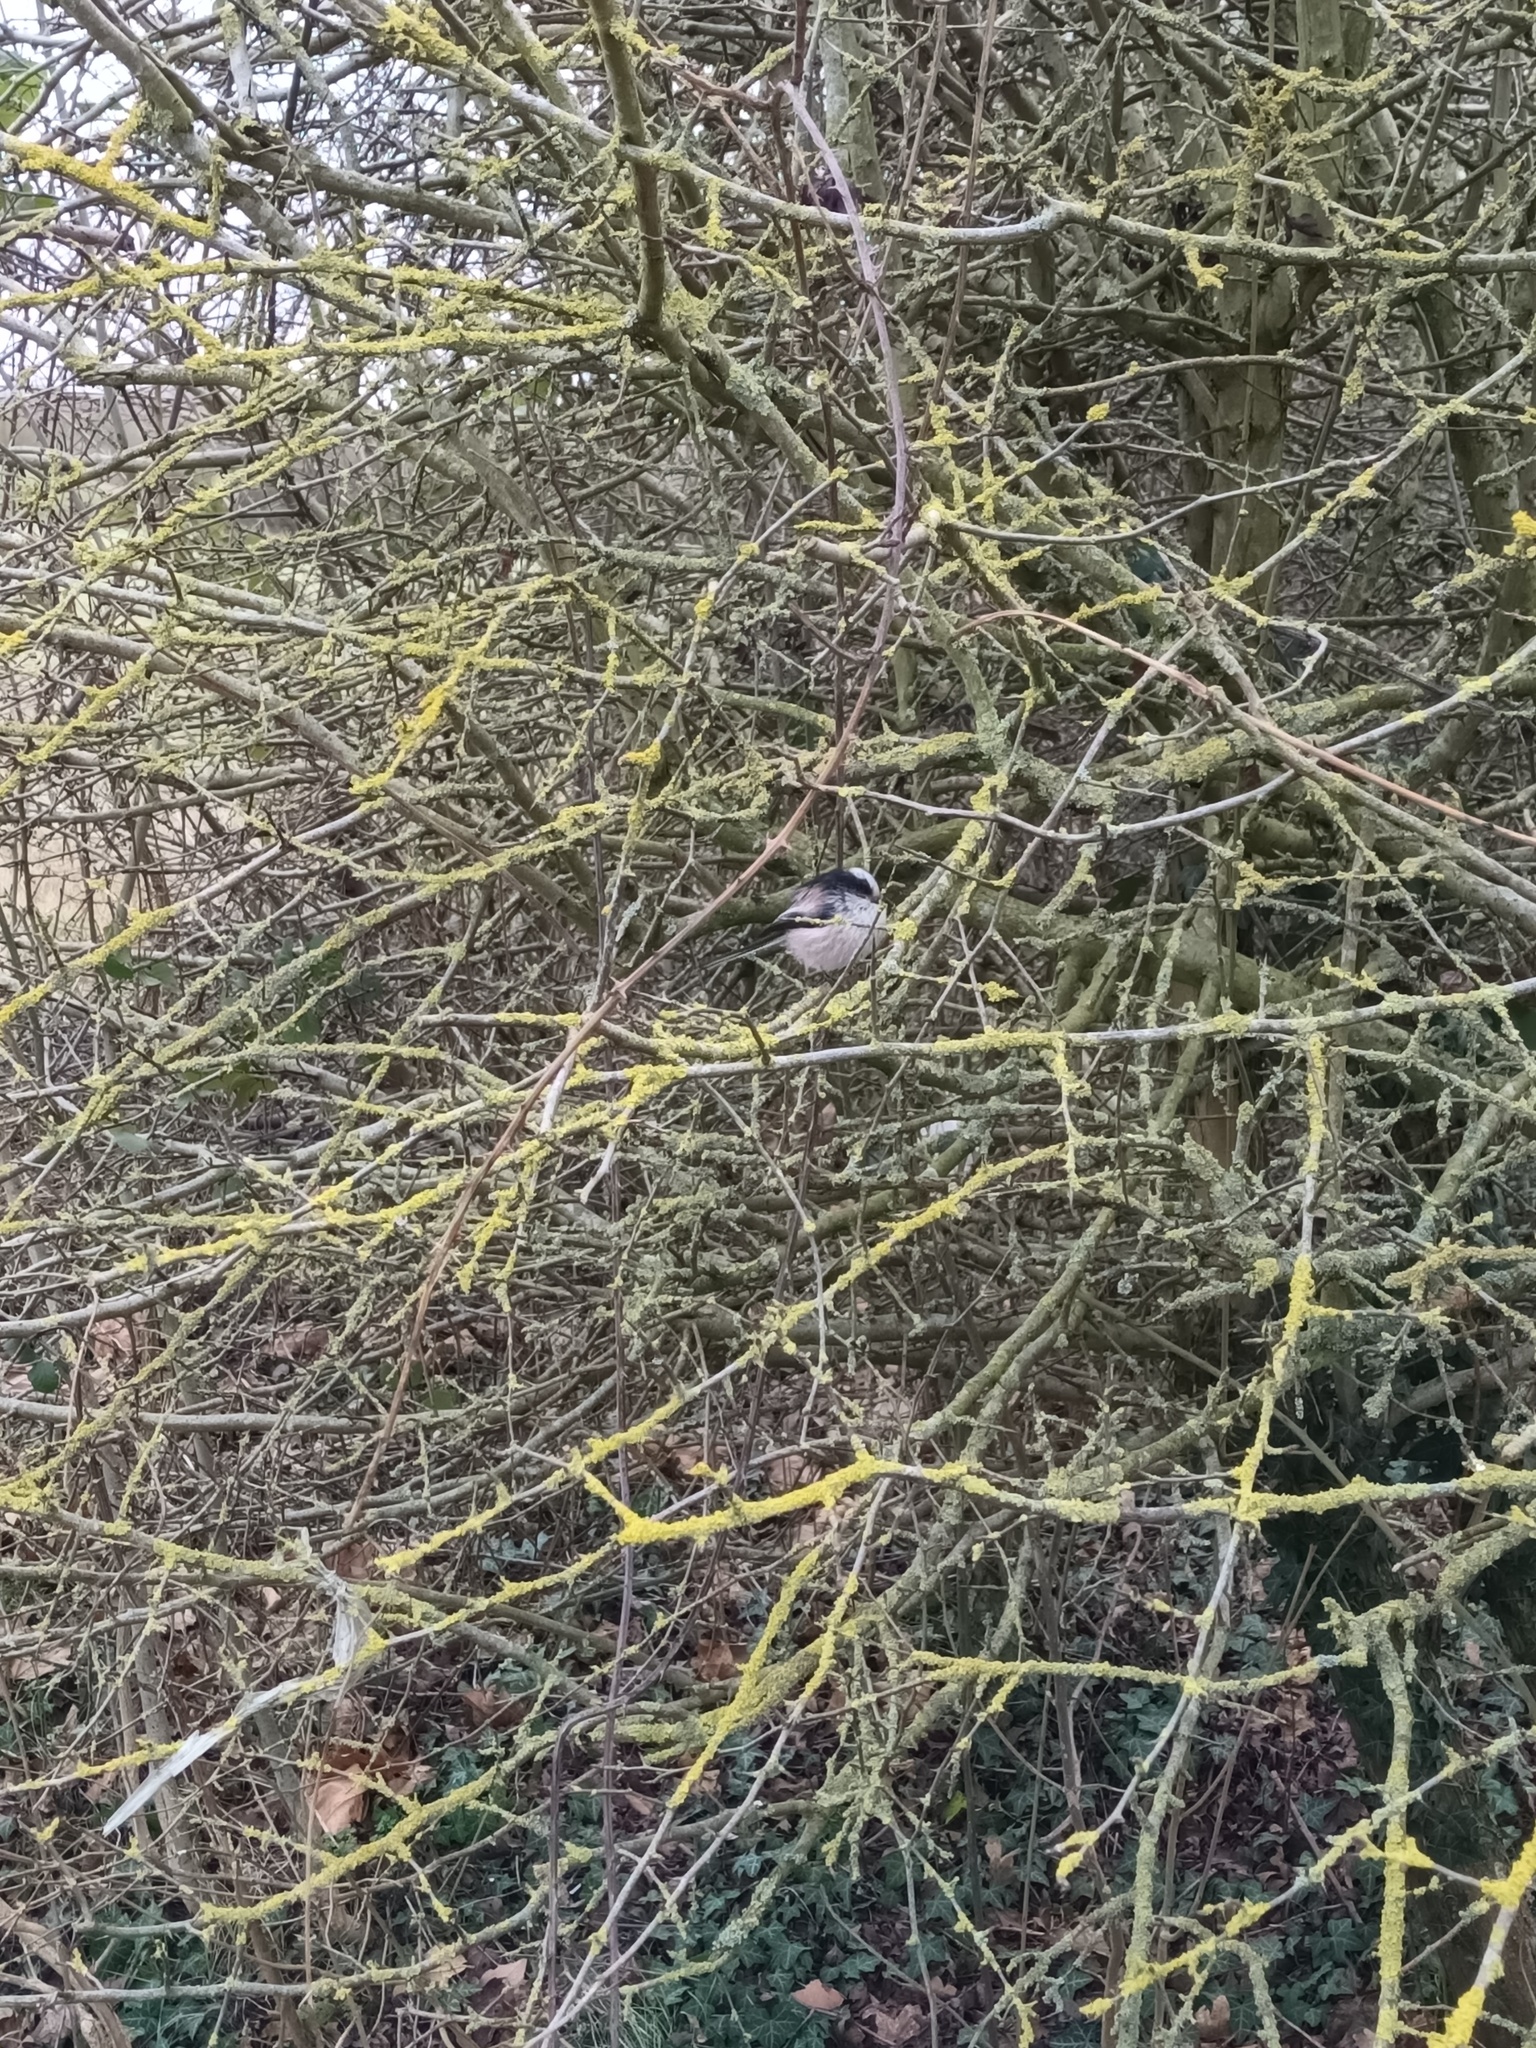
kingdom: Animalia
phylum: Chordata
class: Aves
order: Passeriformes
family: Aegithalidae
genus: Aegithalos
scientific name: Aegithalos caudatus
